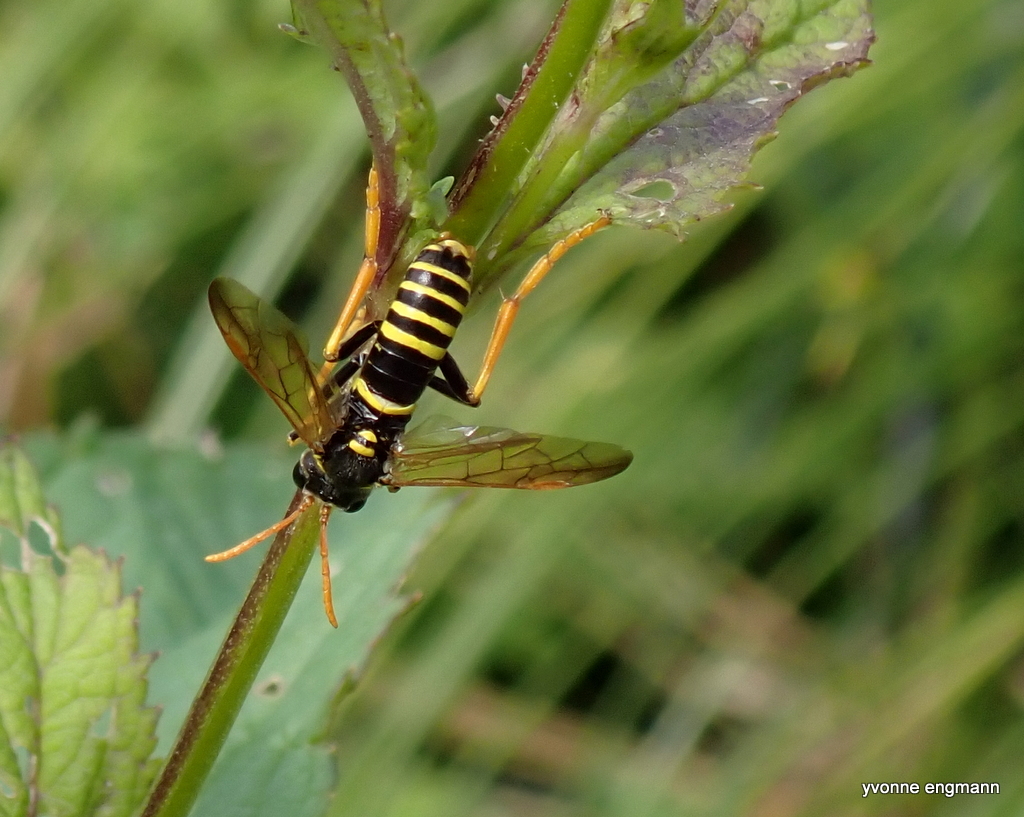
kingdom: Animalia
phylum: Arthropoda
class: Insecta
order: Hymenoptera
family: Tenthredinidae
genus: Tenthredo
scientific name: Tenthredo scrophulariae
